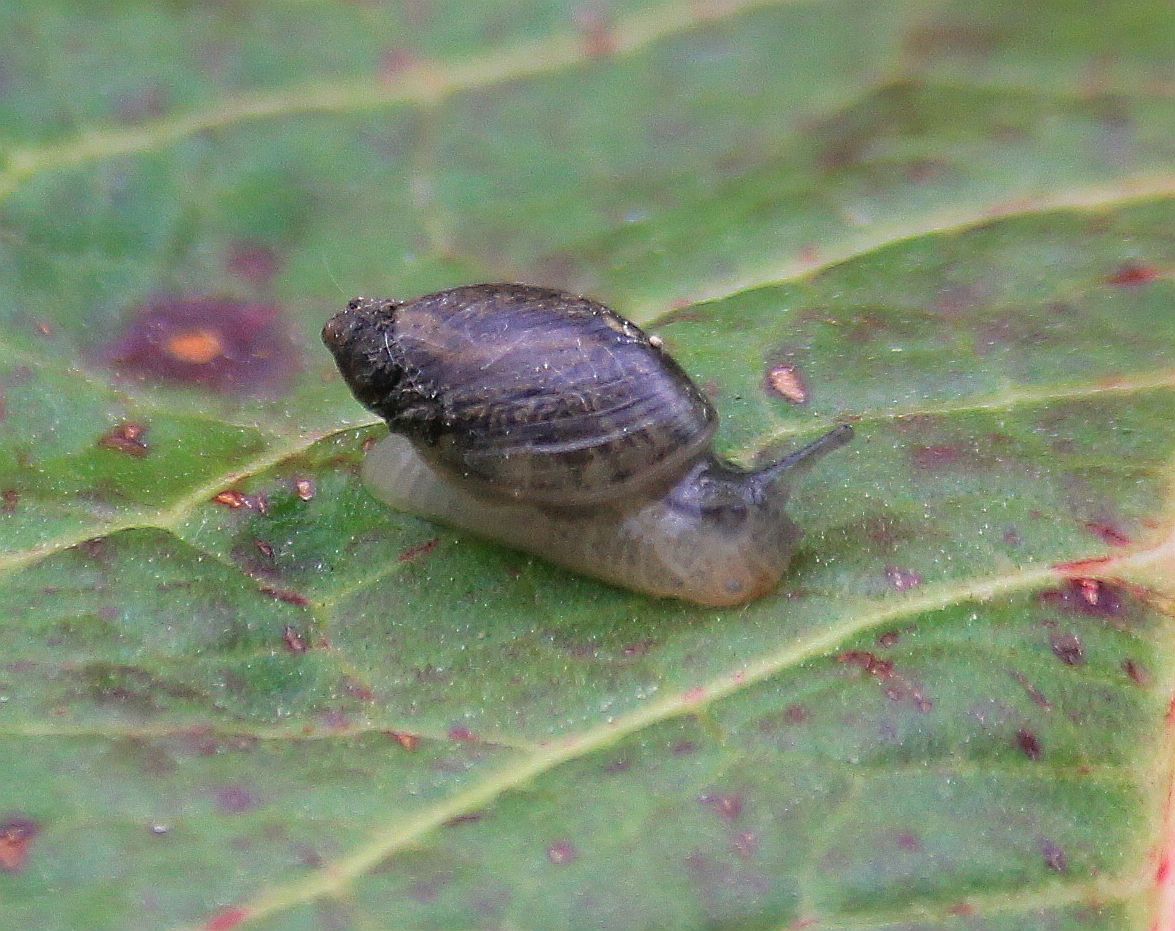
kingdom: Animalia
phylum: Mollusca
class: Gastropoda
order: Stylommatophora
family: Succineidae
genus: Succinea
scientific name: Succinea putris
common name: European ambersnail
